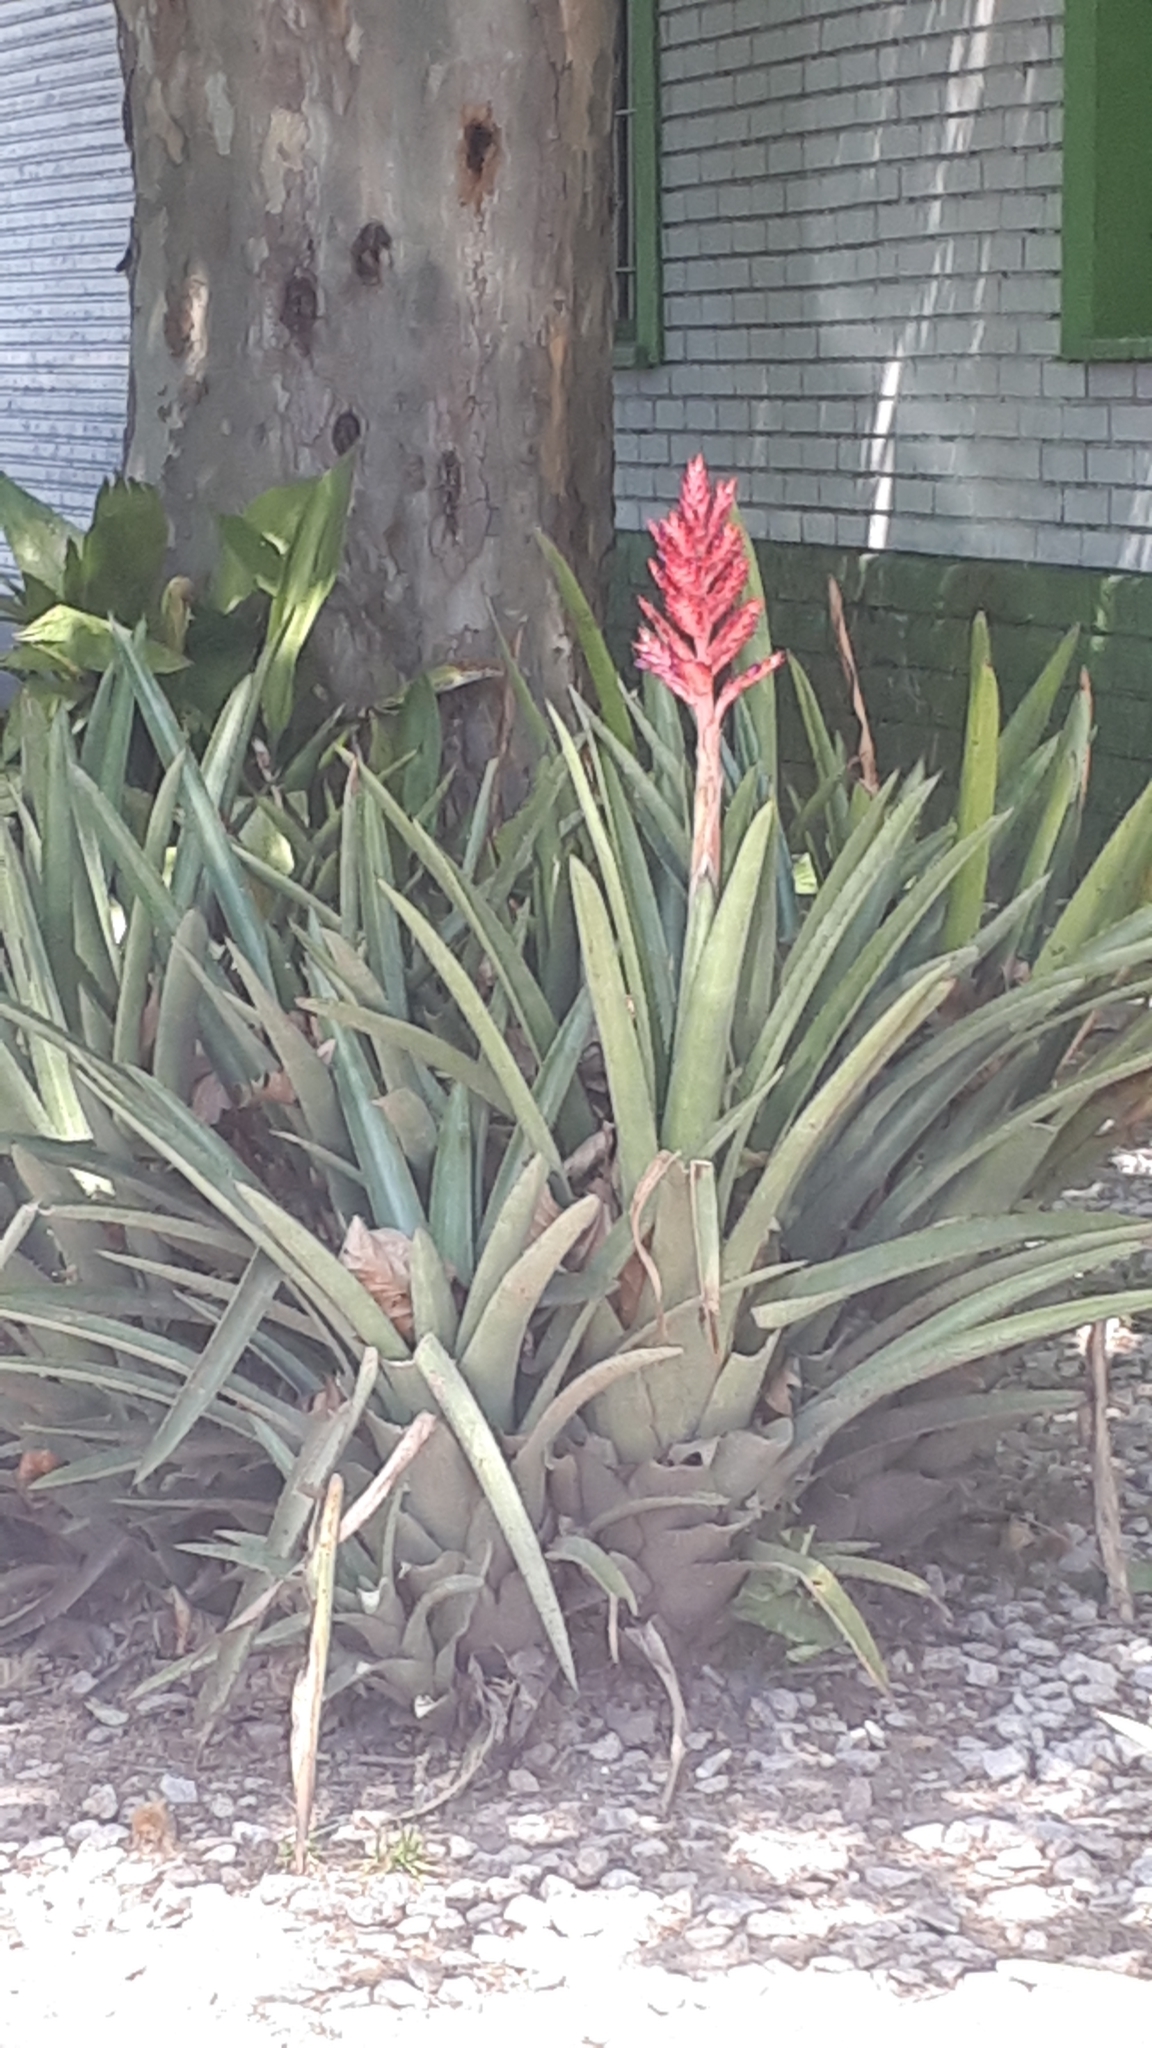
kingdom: Plantae
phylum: Tracheophyta
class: Liliopsida
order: Poales
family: Bromeliaceae
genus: Aechmea
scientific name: Aechmea distichantha
